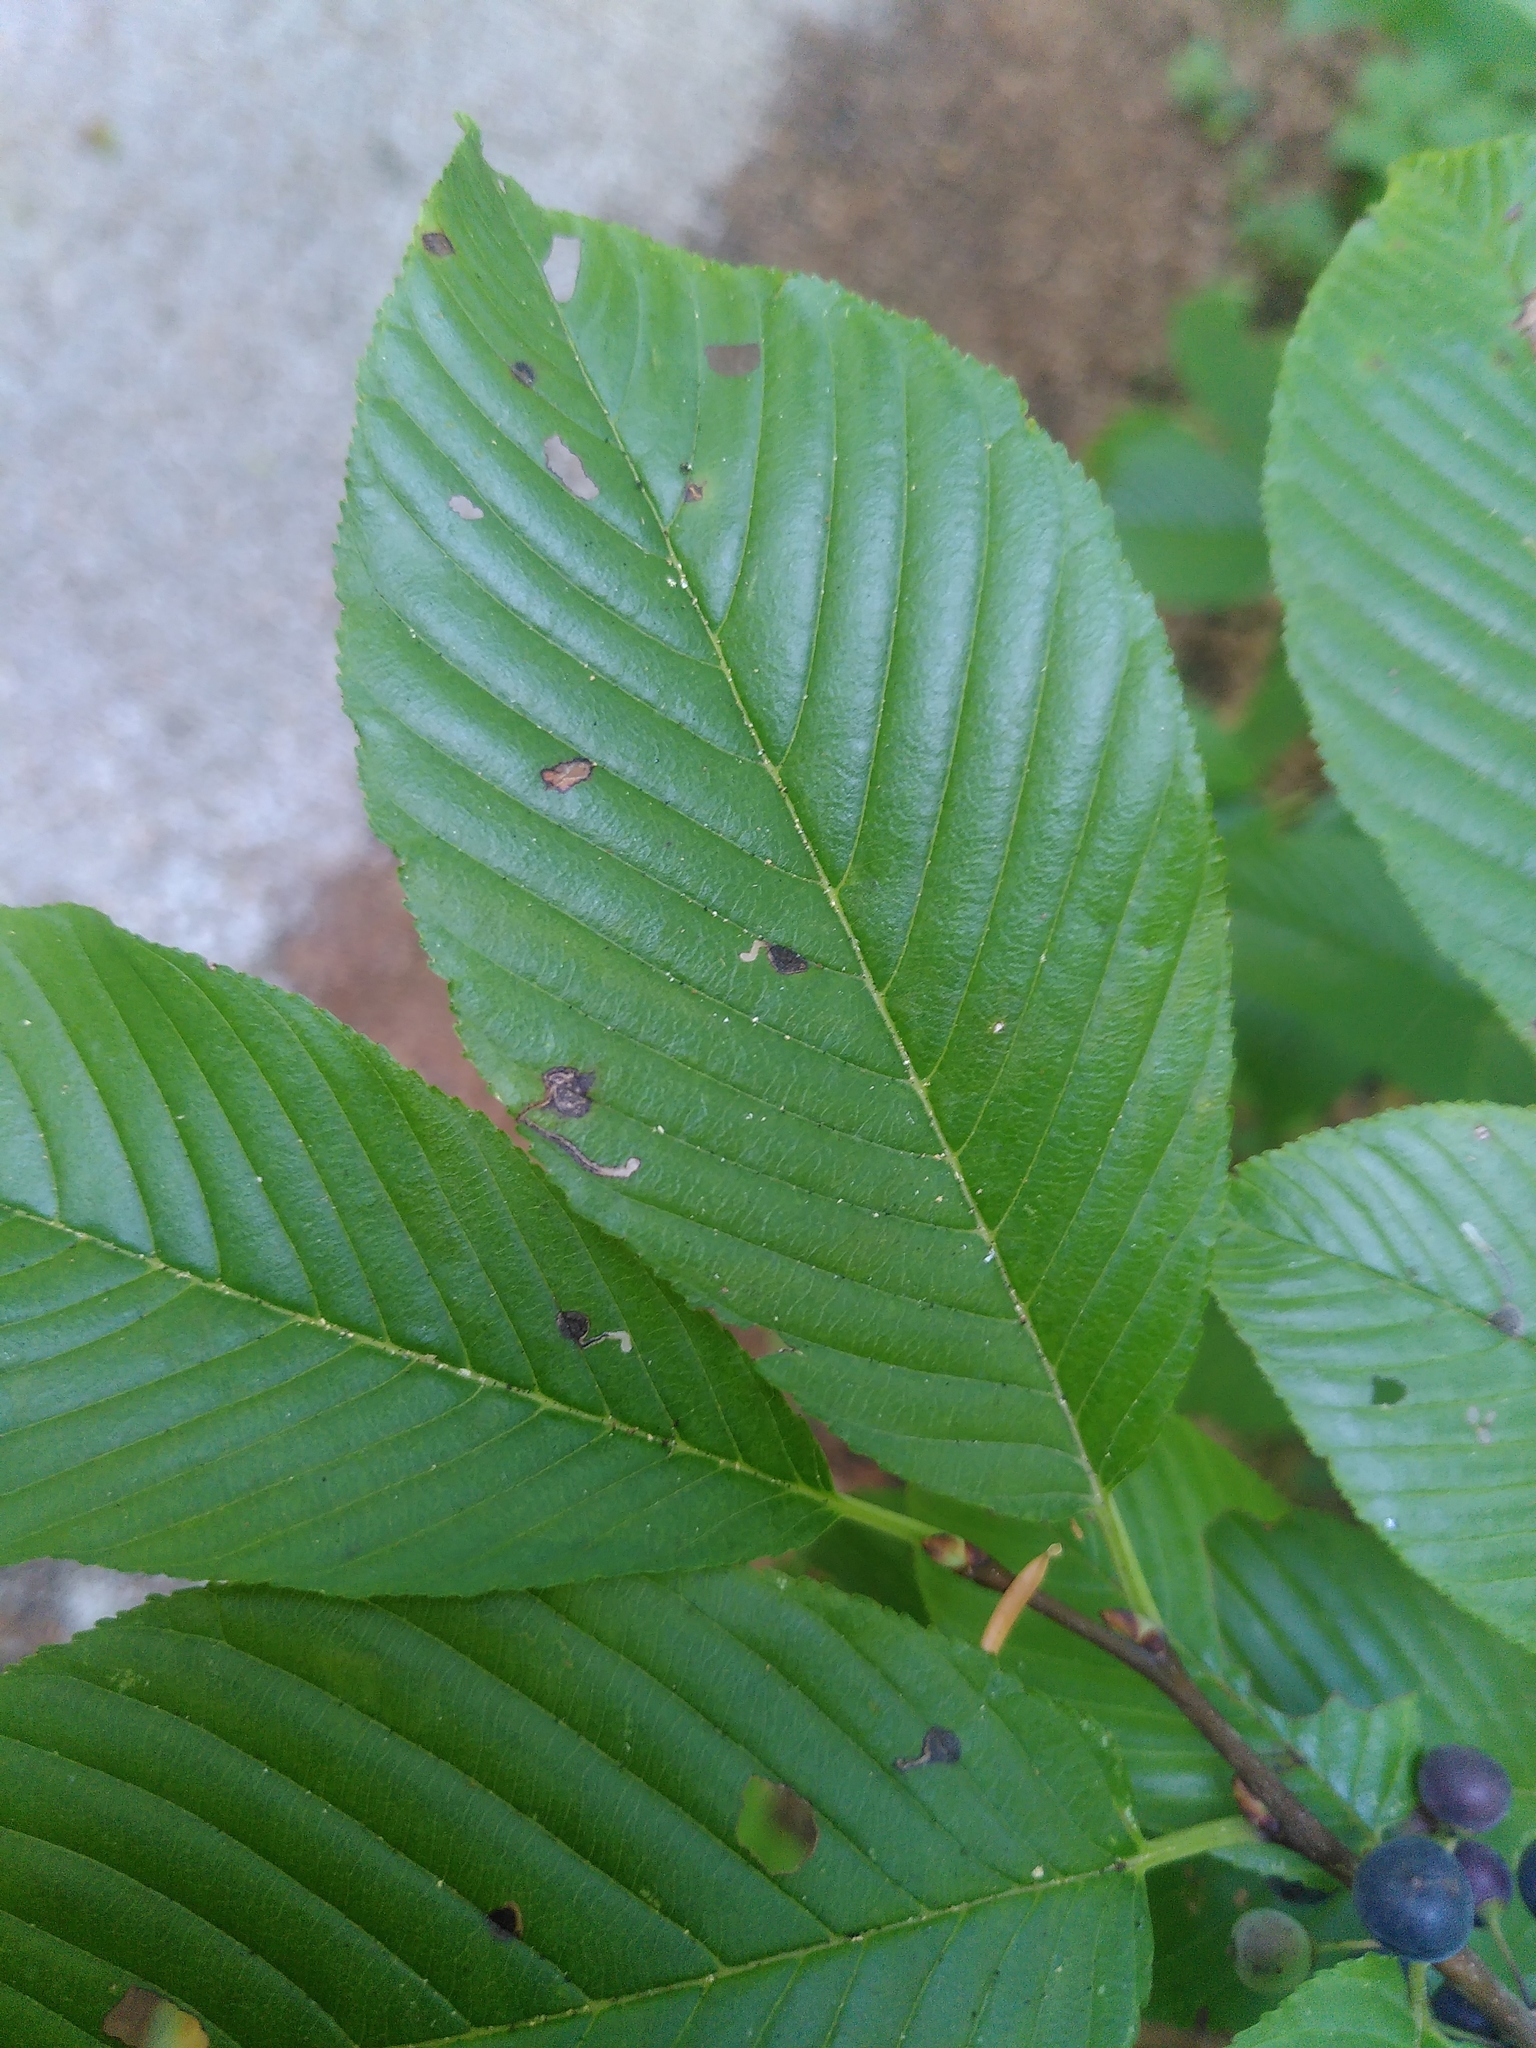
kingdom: Plantae
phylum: Tracheophyta
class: Magnoliopsida
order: Rosales
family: Rhamnaceae
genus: Atadinus
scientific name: Atadinus fallax
